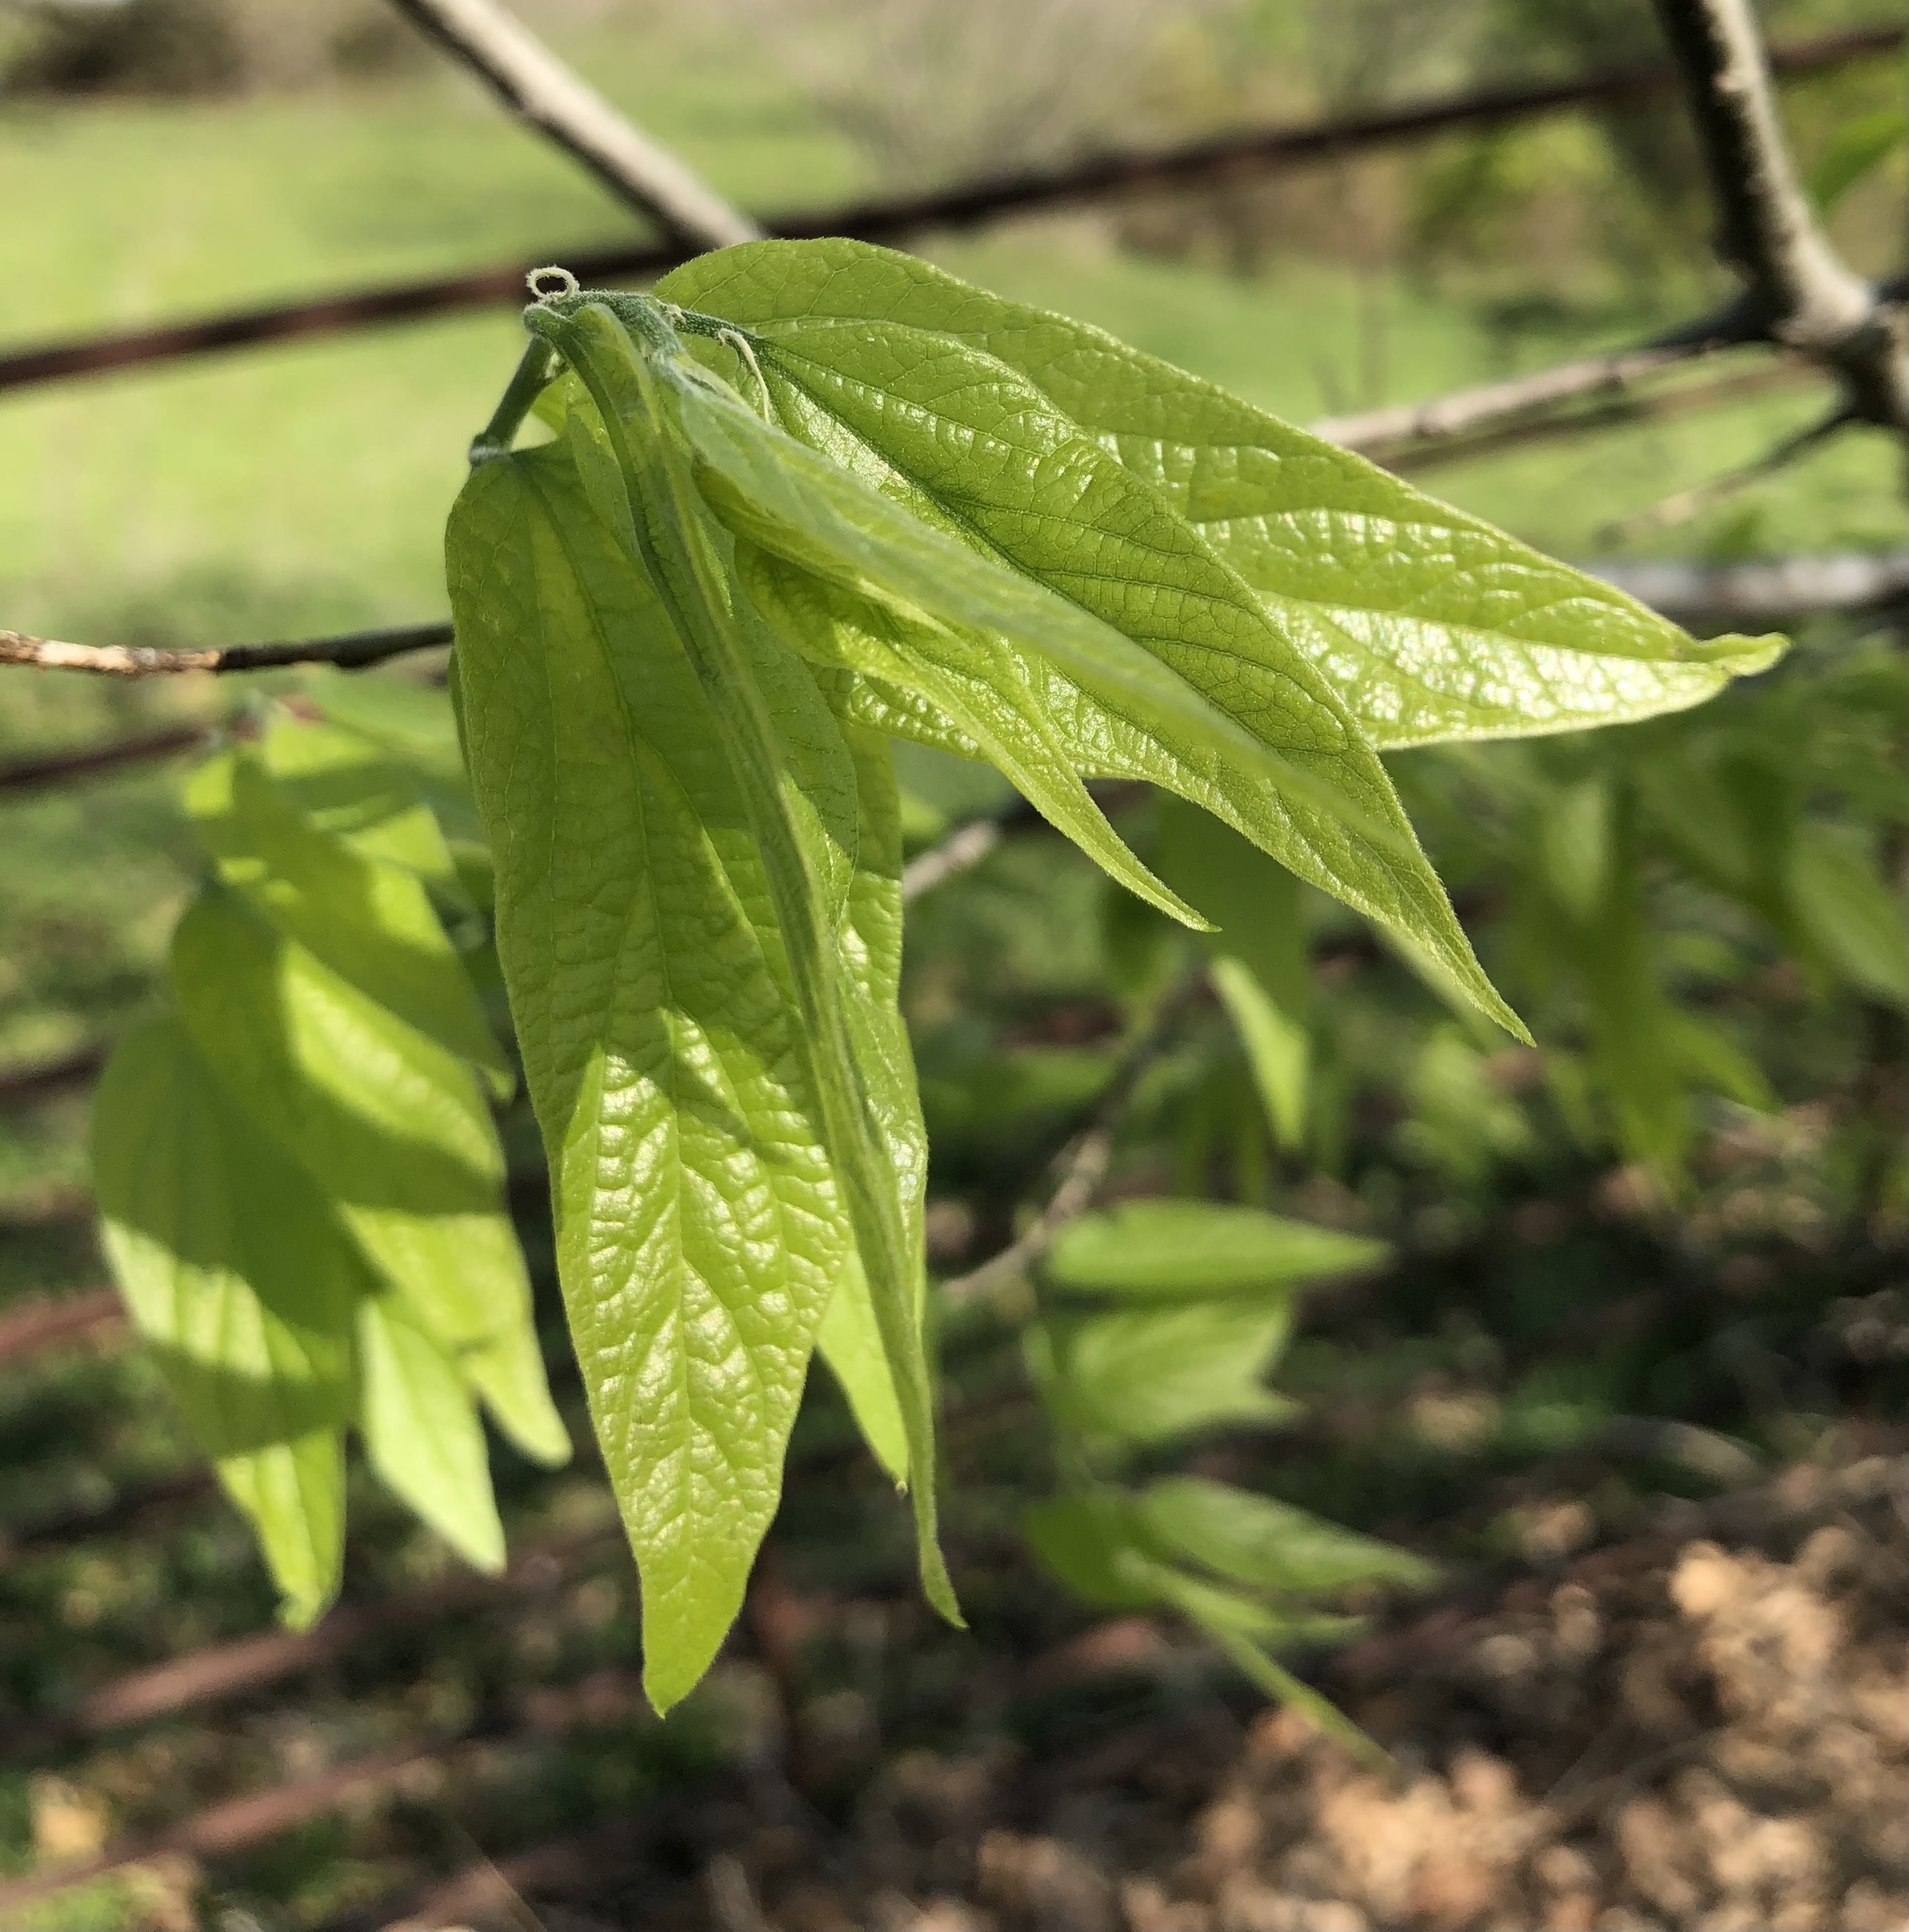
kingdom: Plantae
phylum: Tracheophyta
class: Magnoliopsida
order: Rosales
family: Cannabaceae
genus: Celtis
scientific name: Celtis laevigata
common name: Sugarberry
